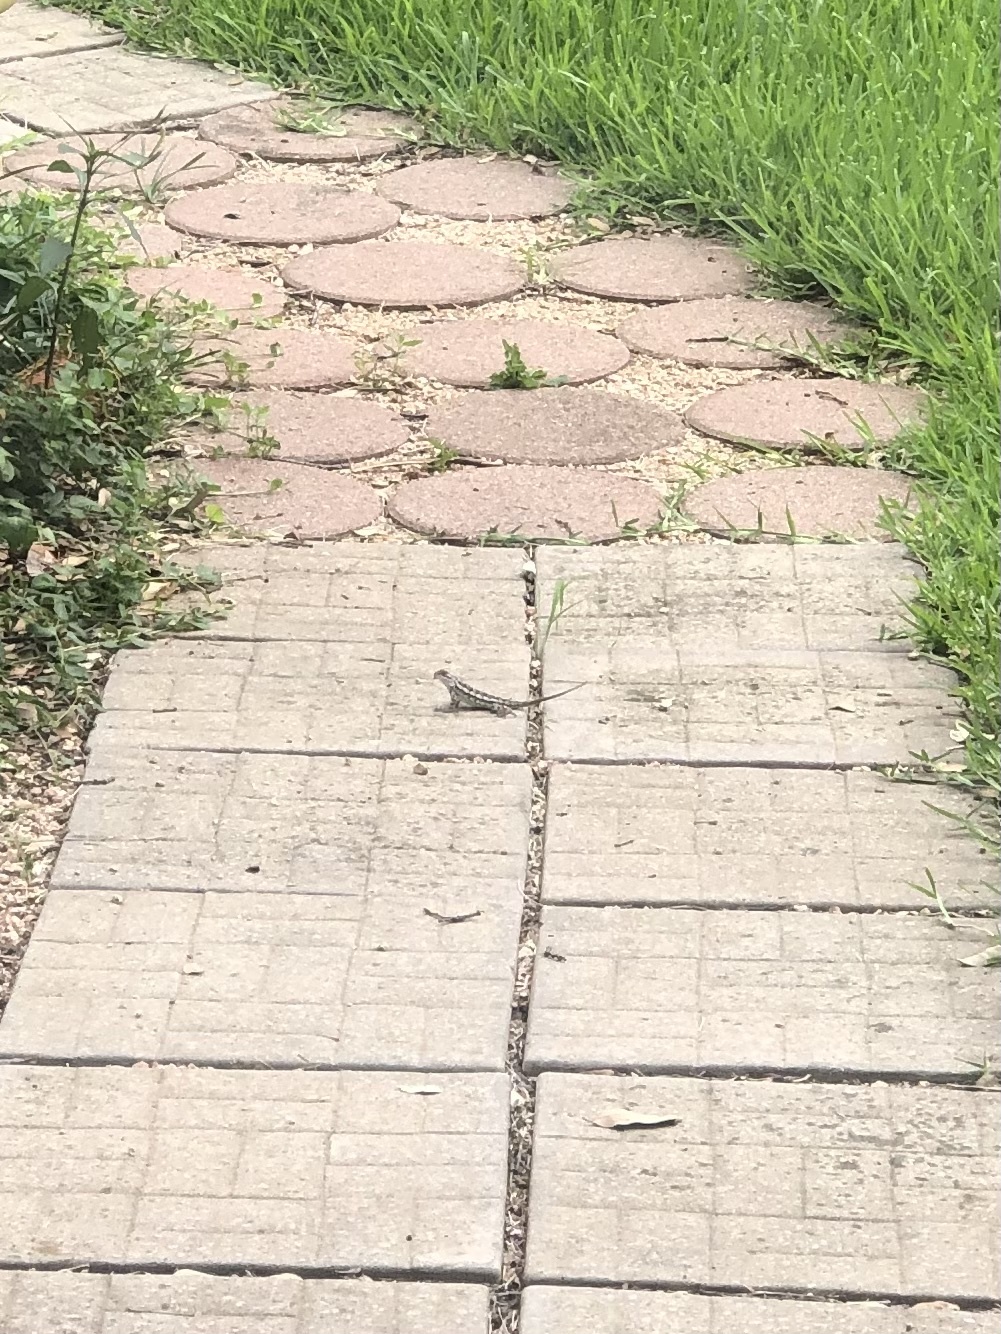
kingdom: Animalia
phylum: Chordata
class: Squamata
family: Phrynosomatidae
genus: Sceloporus
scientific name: Sceloporus olivaceus
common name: Texas spiny lizard
